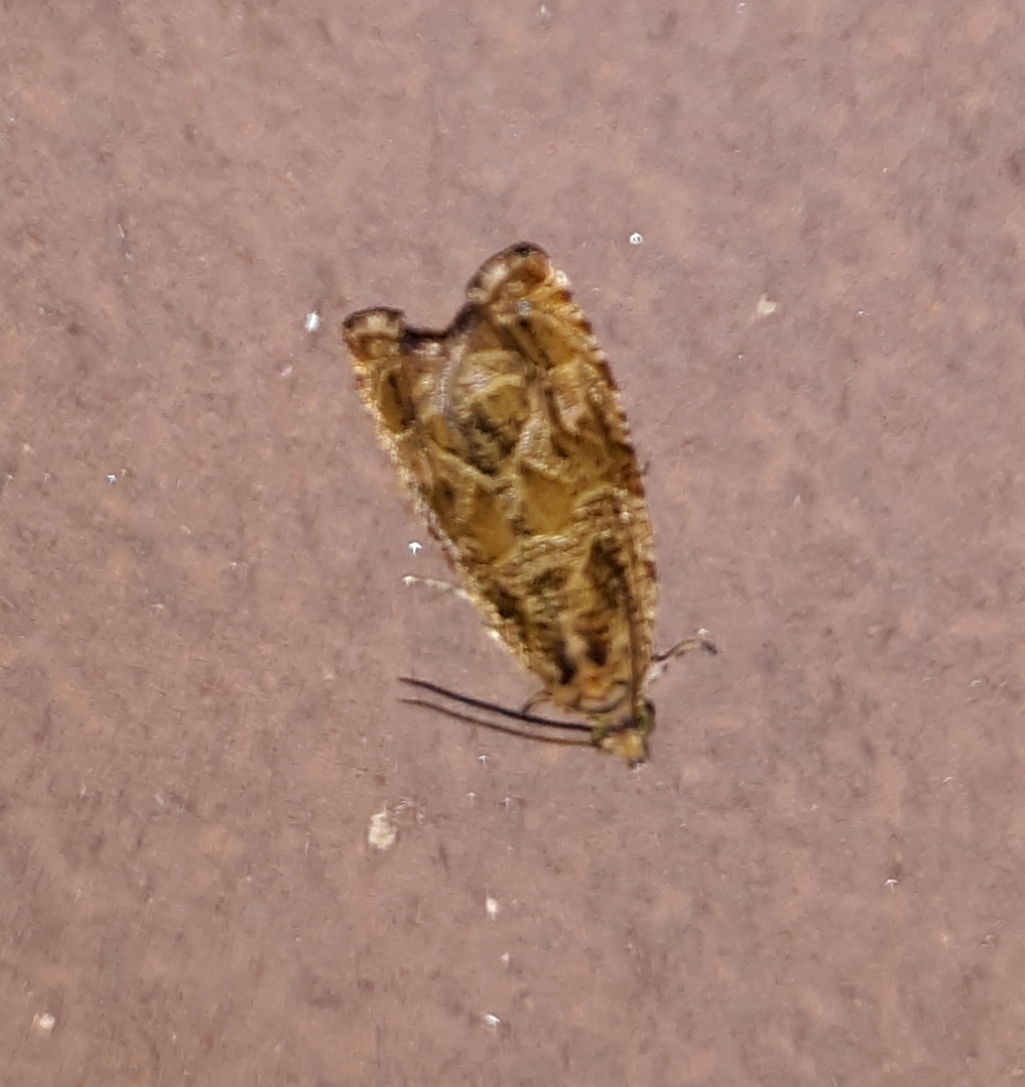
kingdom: Animalia
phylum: Arthropoda
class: Insecta
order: Lepidoptera
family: Tortricidae
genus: Olethreutes
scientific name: Olethreutes permundana
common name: Raspberry leafroller moth
